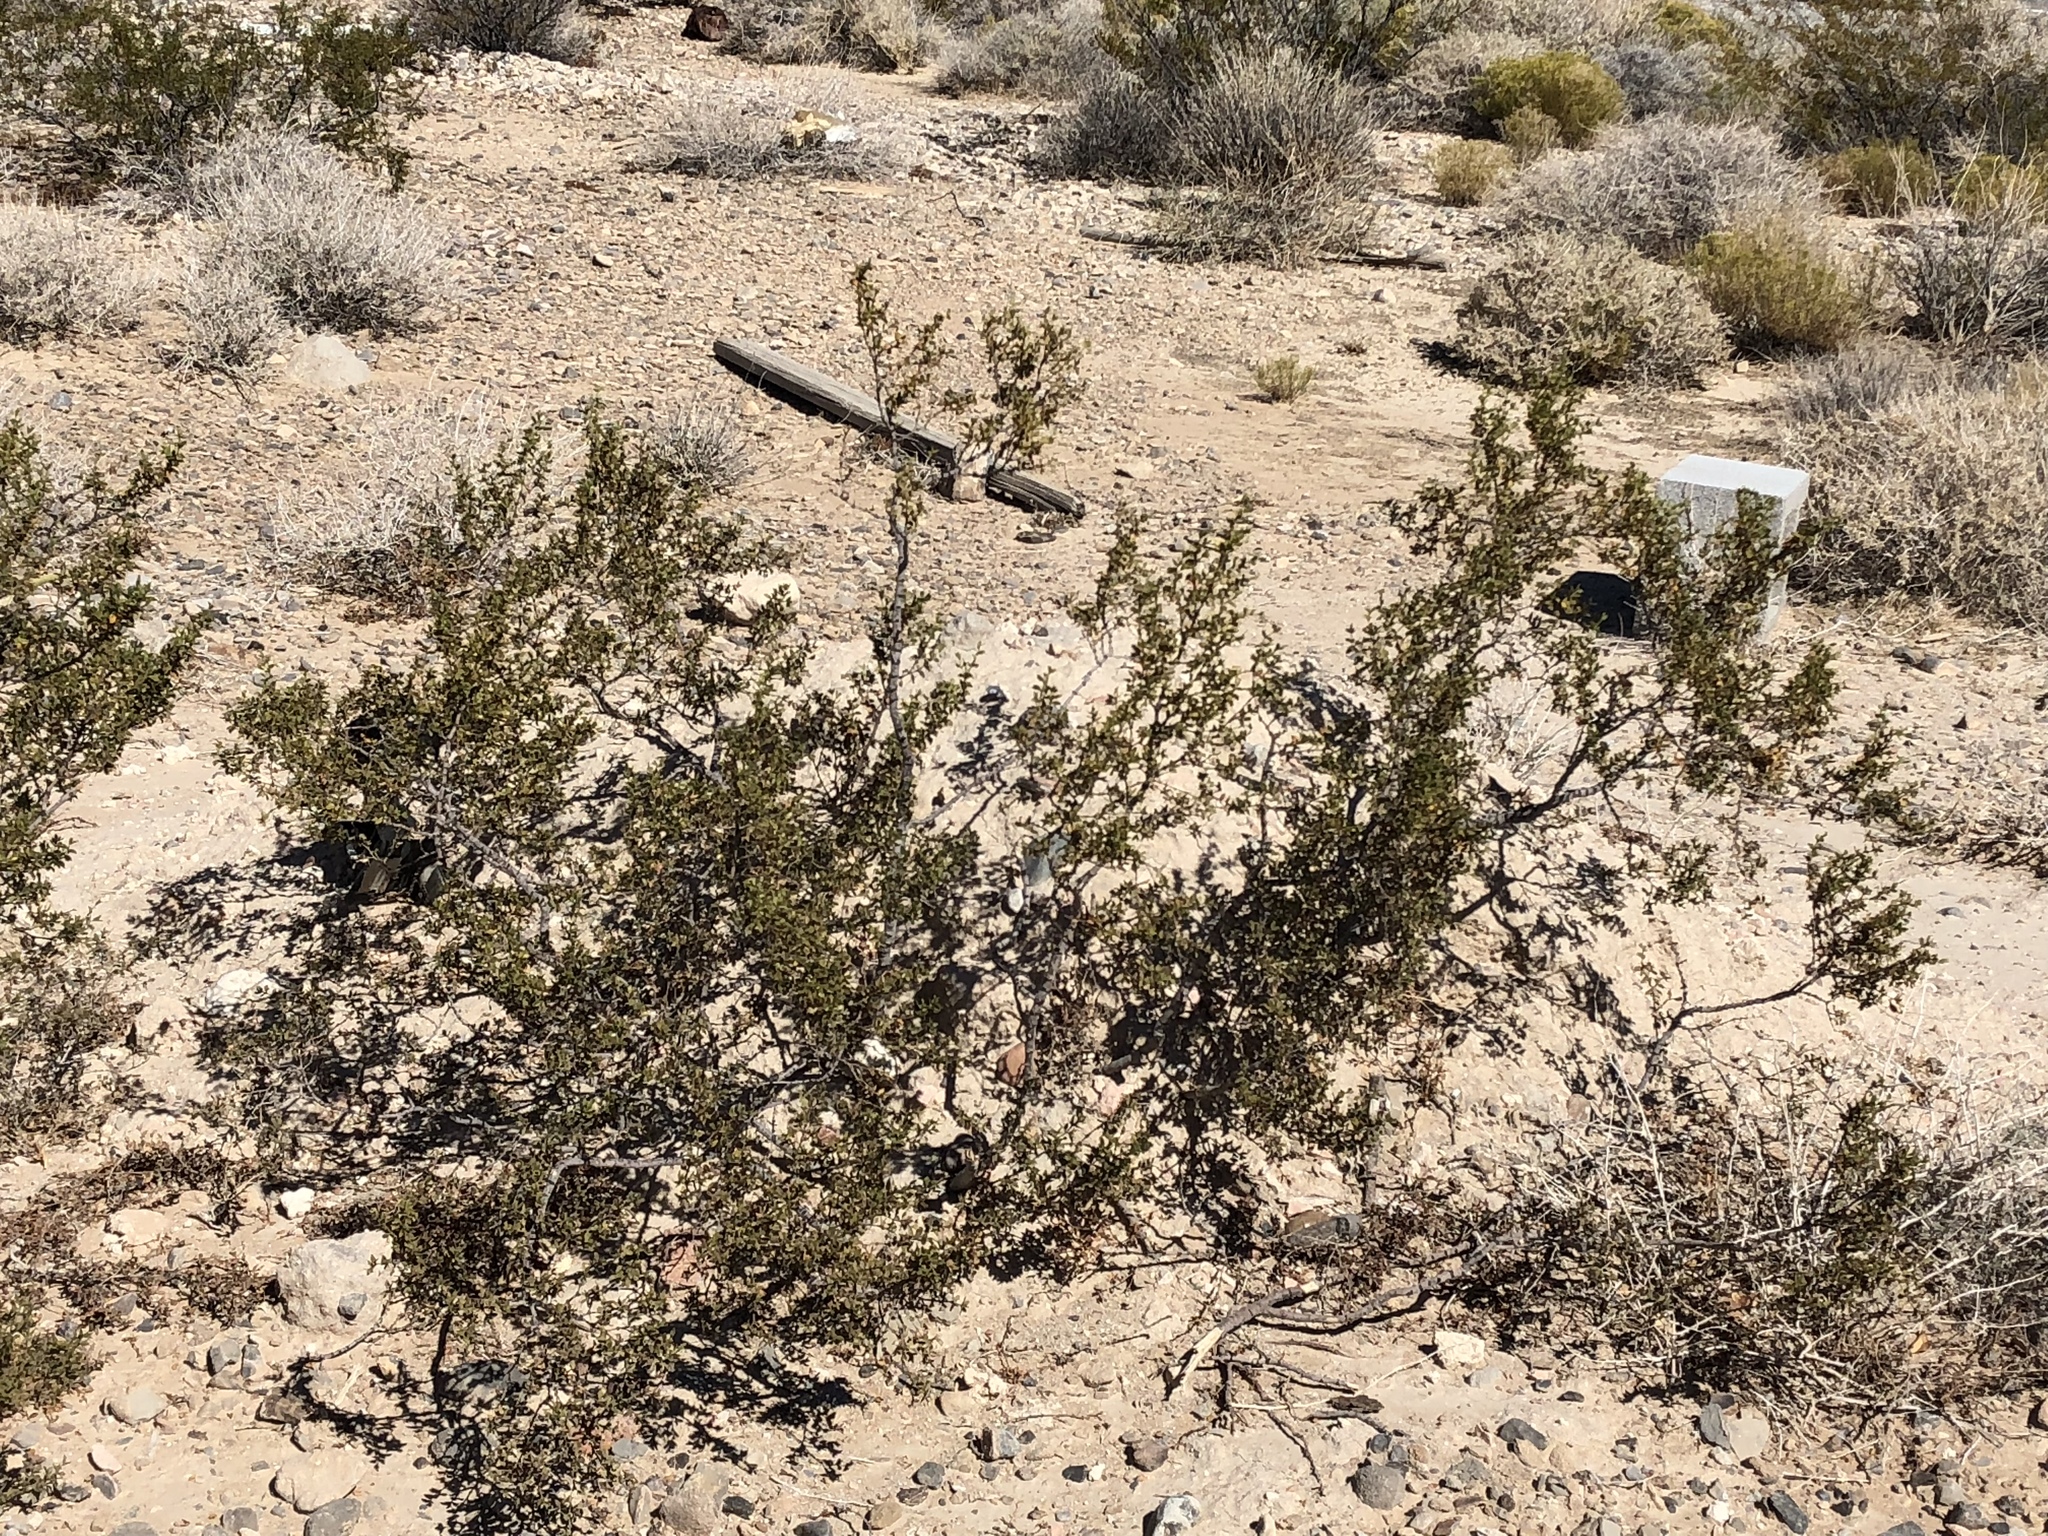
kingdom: Plantae
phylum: Tracheophyta
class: Magnoliopsida
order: Zygophyllales
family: Zygophyllaceae
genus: Larrea
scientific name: Larrea tridentata
